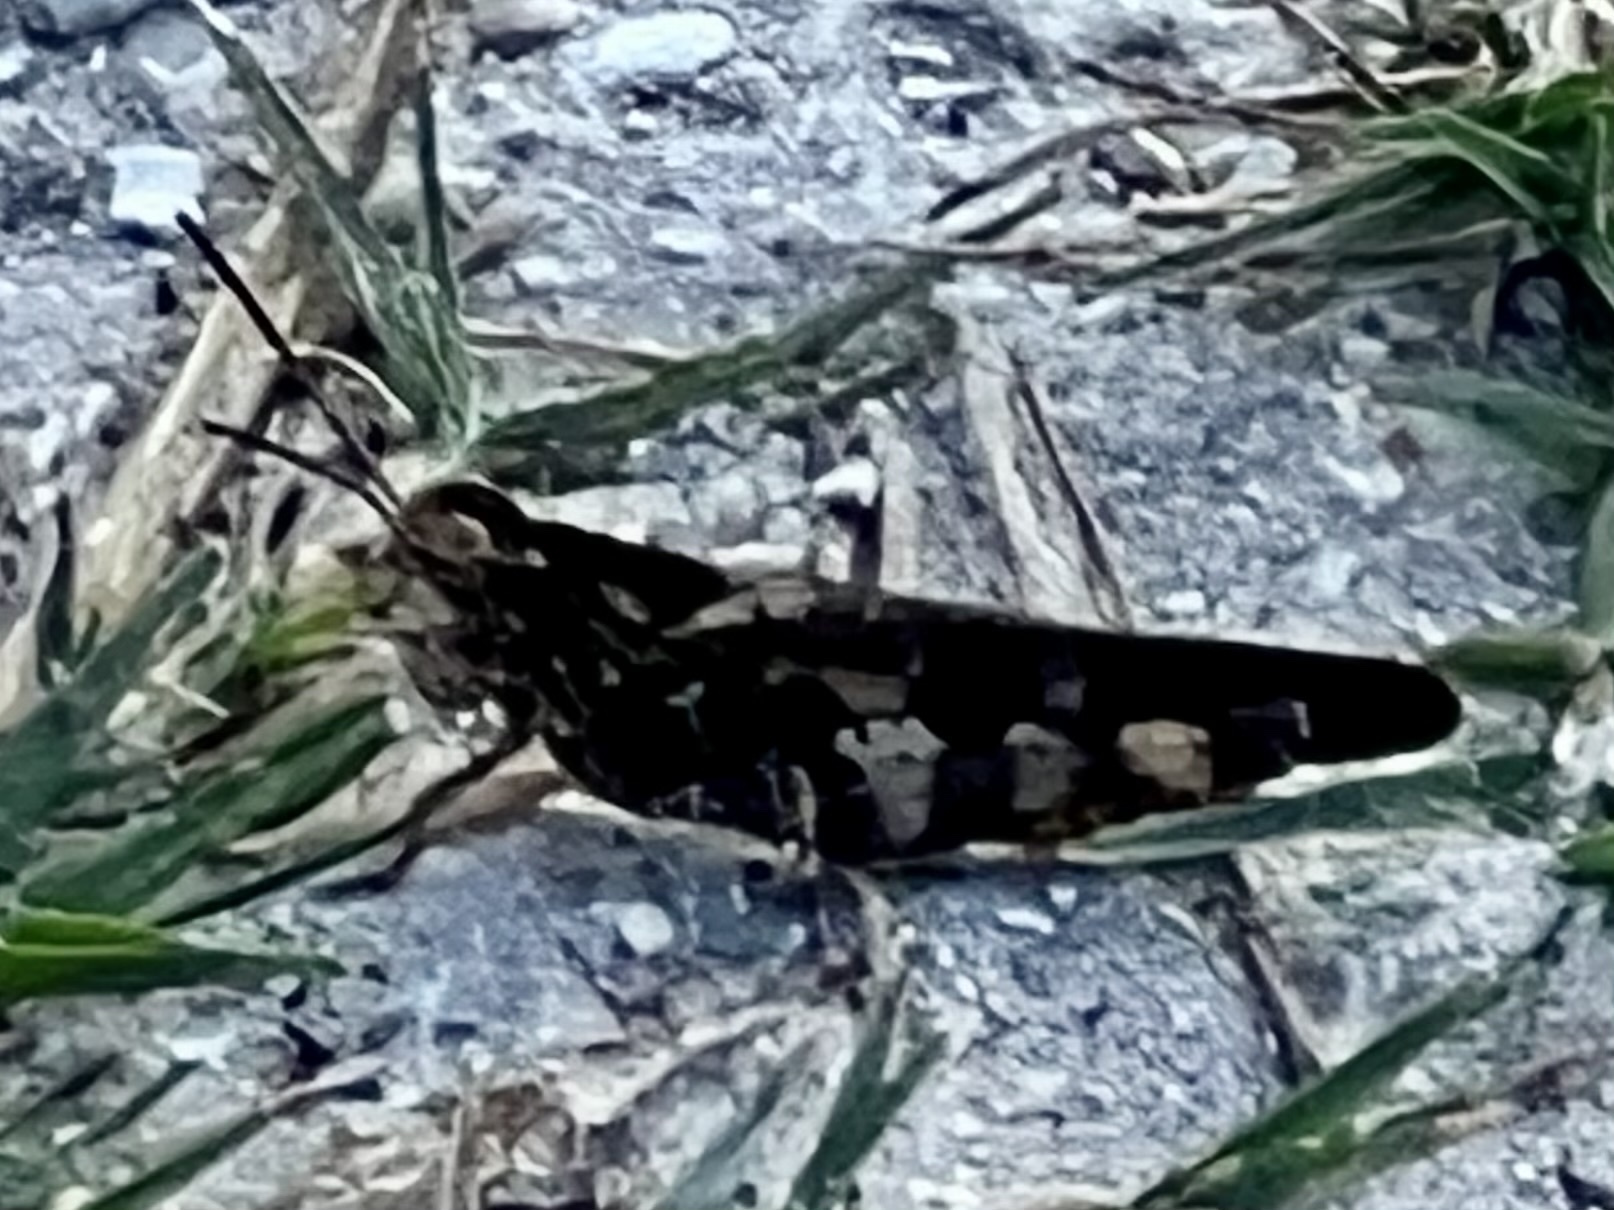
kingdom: Animalia
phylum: Arthropoda
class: Insecta
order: Orthoptera
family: Acrididae
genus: Chortophaga
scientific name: Chortophaga australior
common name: Southern green-striped grasshopper
